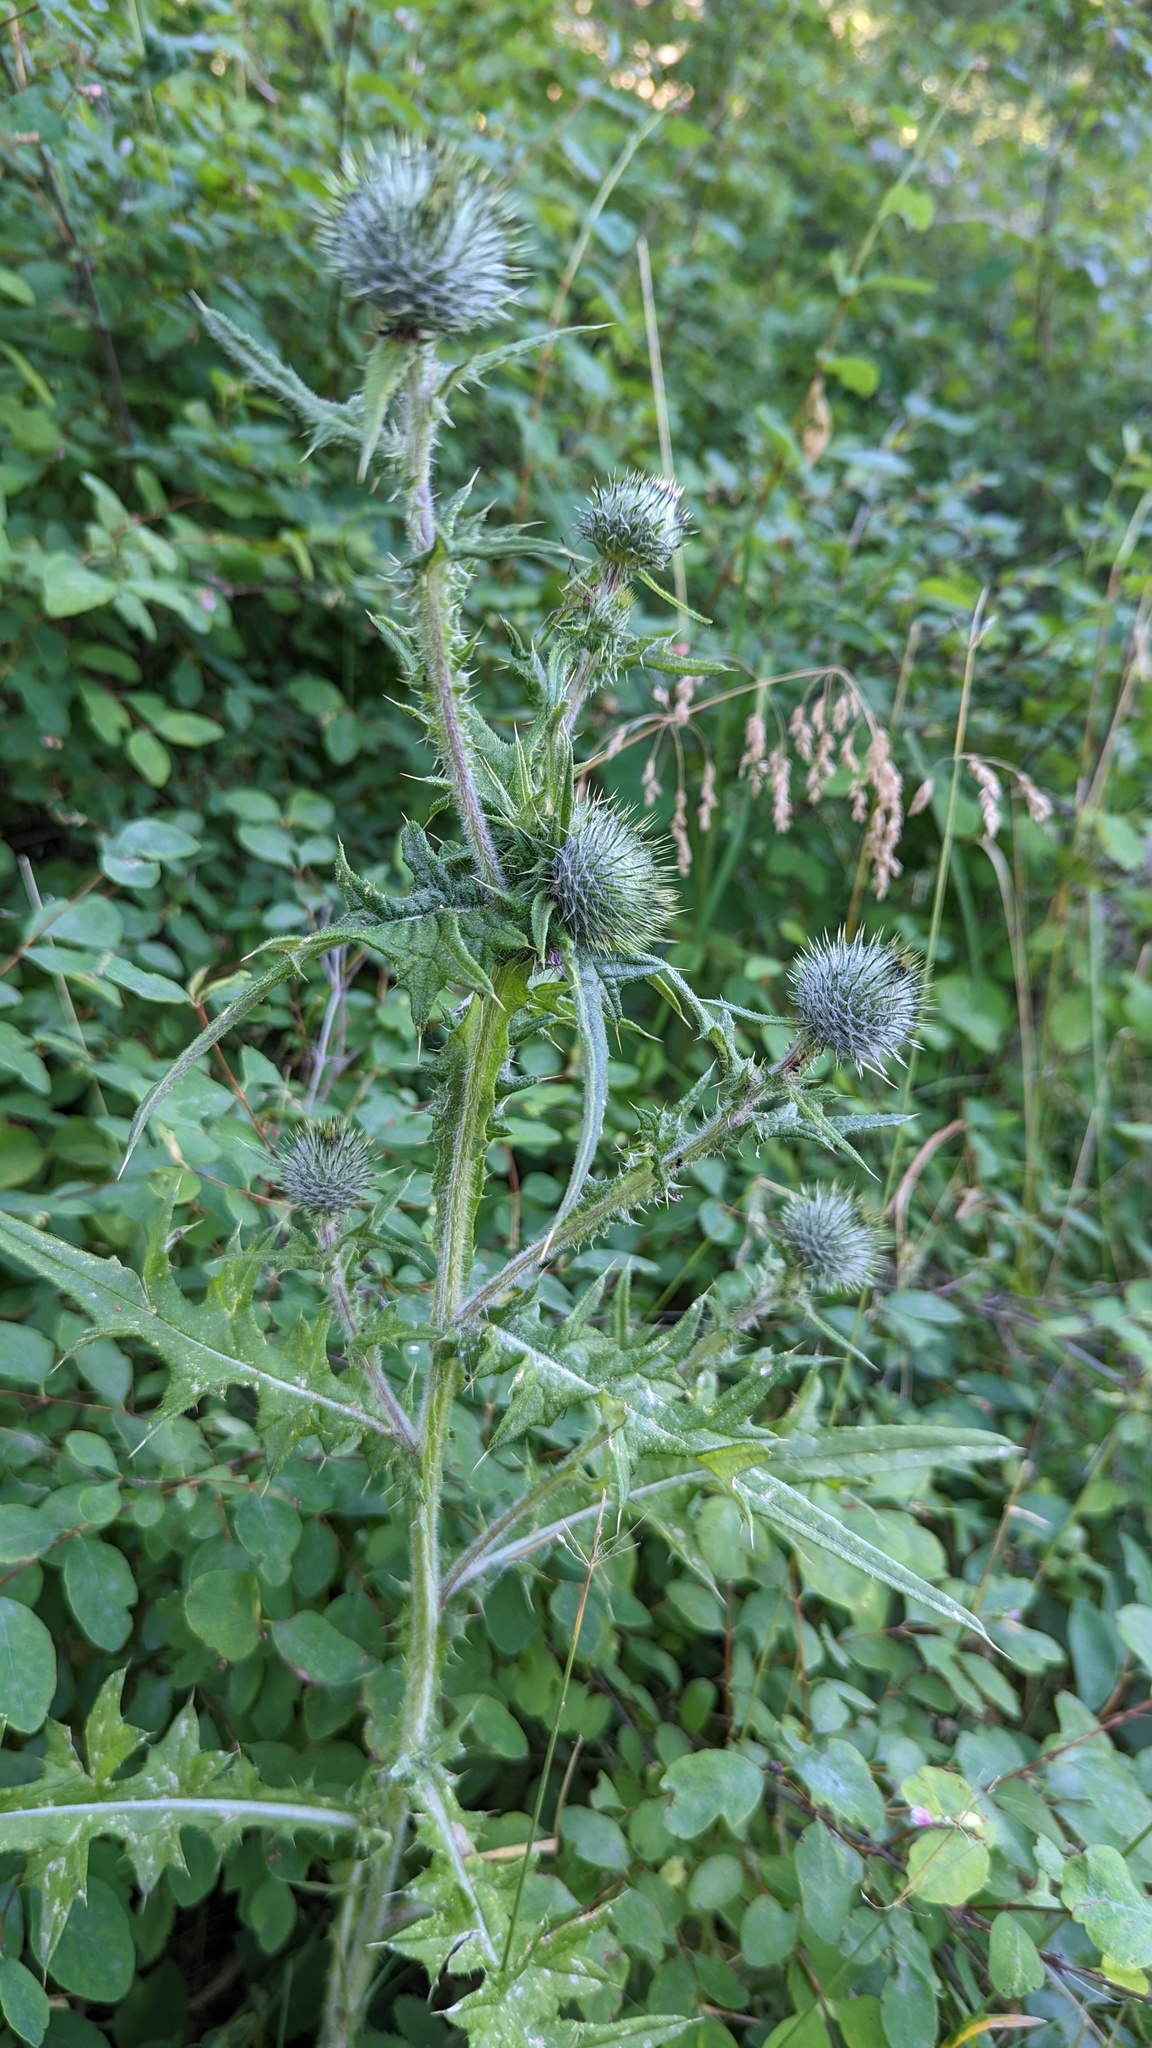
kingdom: Plantae
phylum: Tracheophyta
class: Magnoliopsida
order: Asterales
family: Asteraceae
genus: Cirsium
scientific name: Cirsium vulgare
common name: Bull thistle
